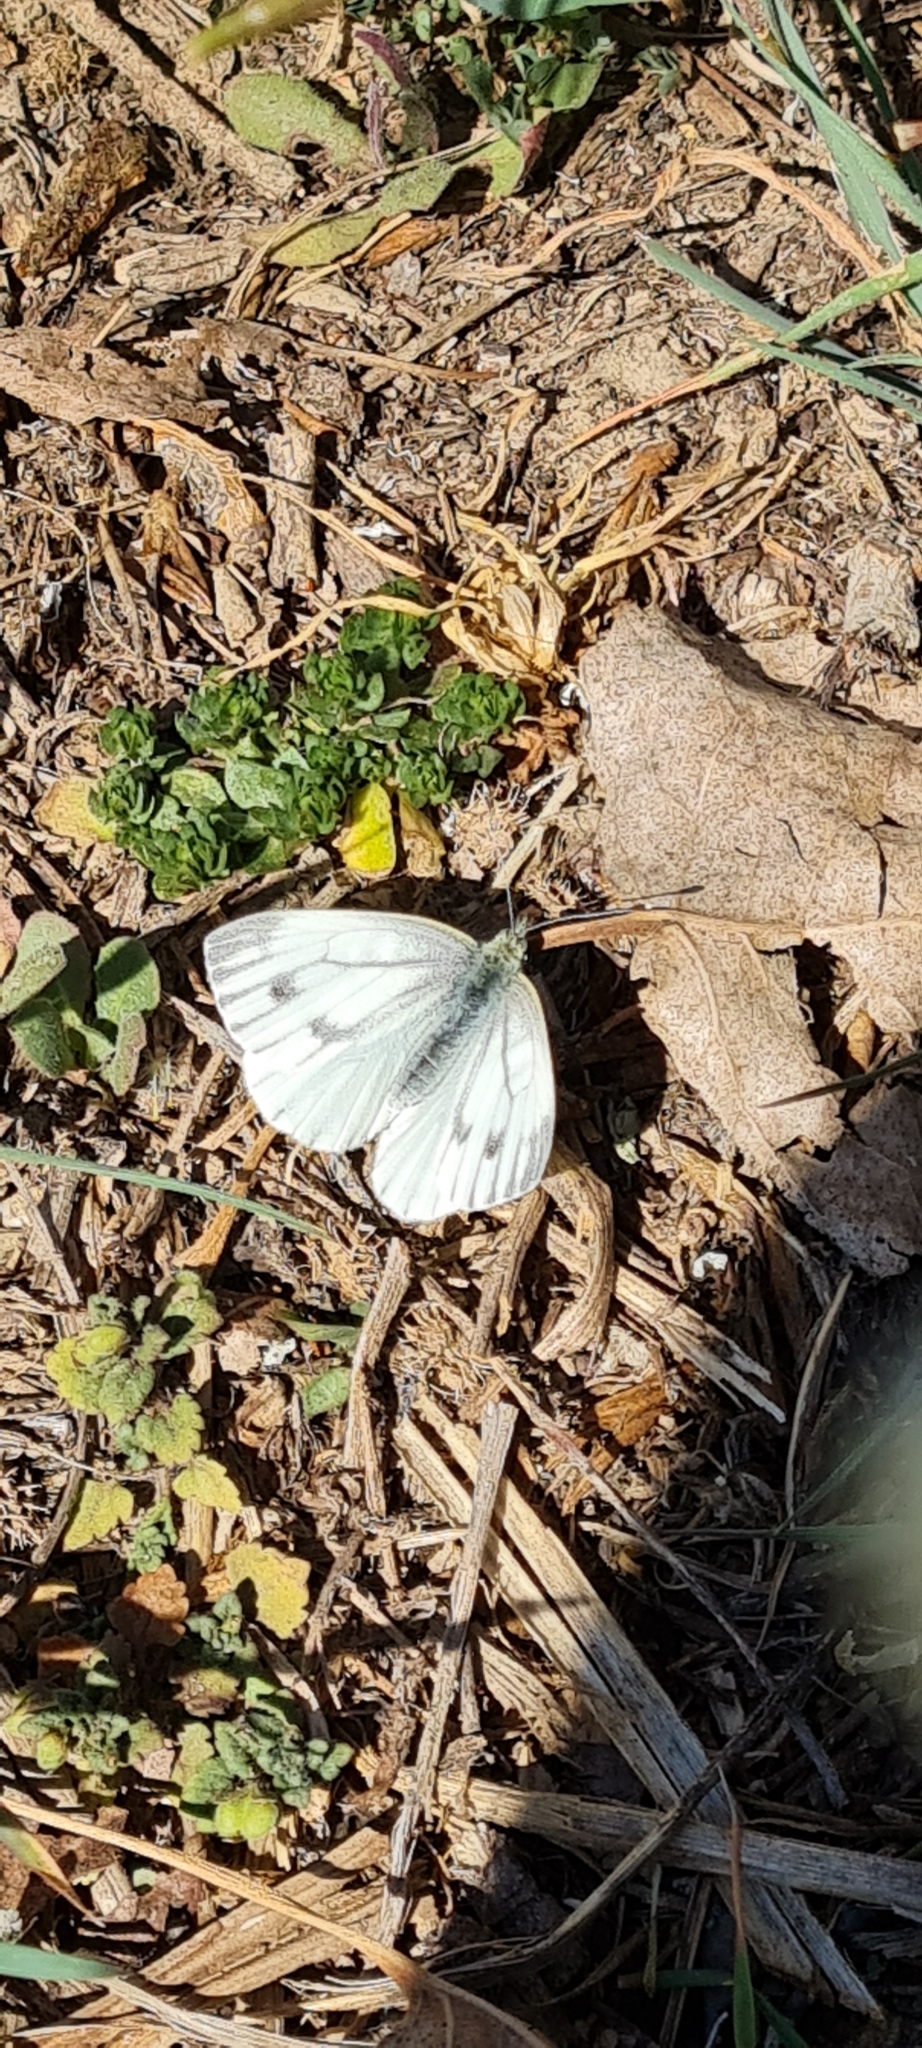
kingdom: Animalia
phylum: Arthropoda
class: Insecta
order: Lepidoptera
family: Pieridae
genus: Pieris
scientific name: Pieris napi
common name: Green-veined white
